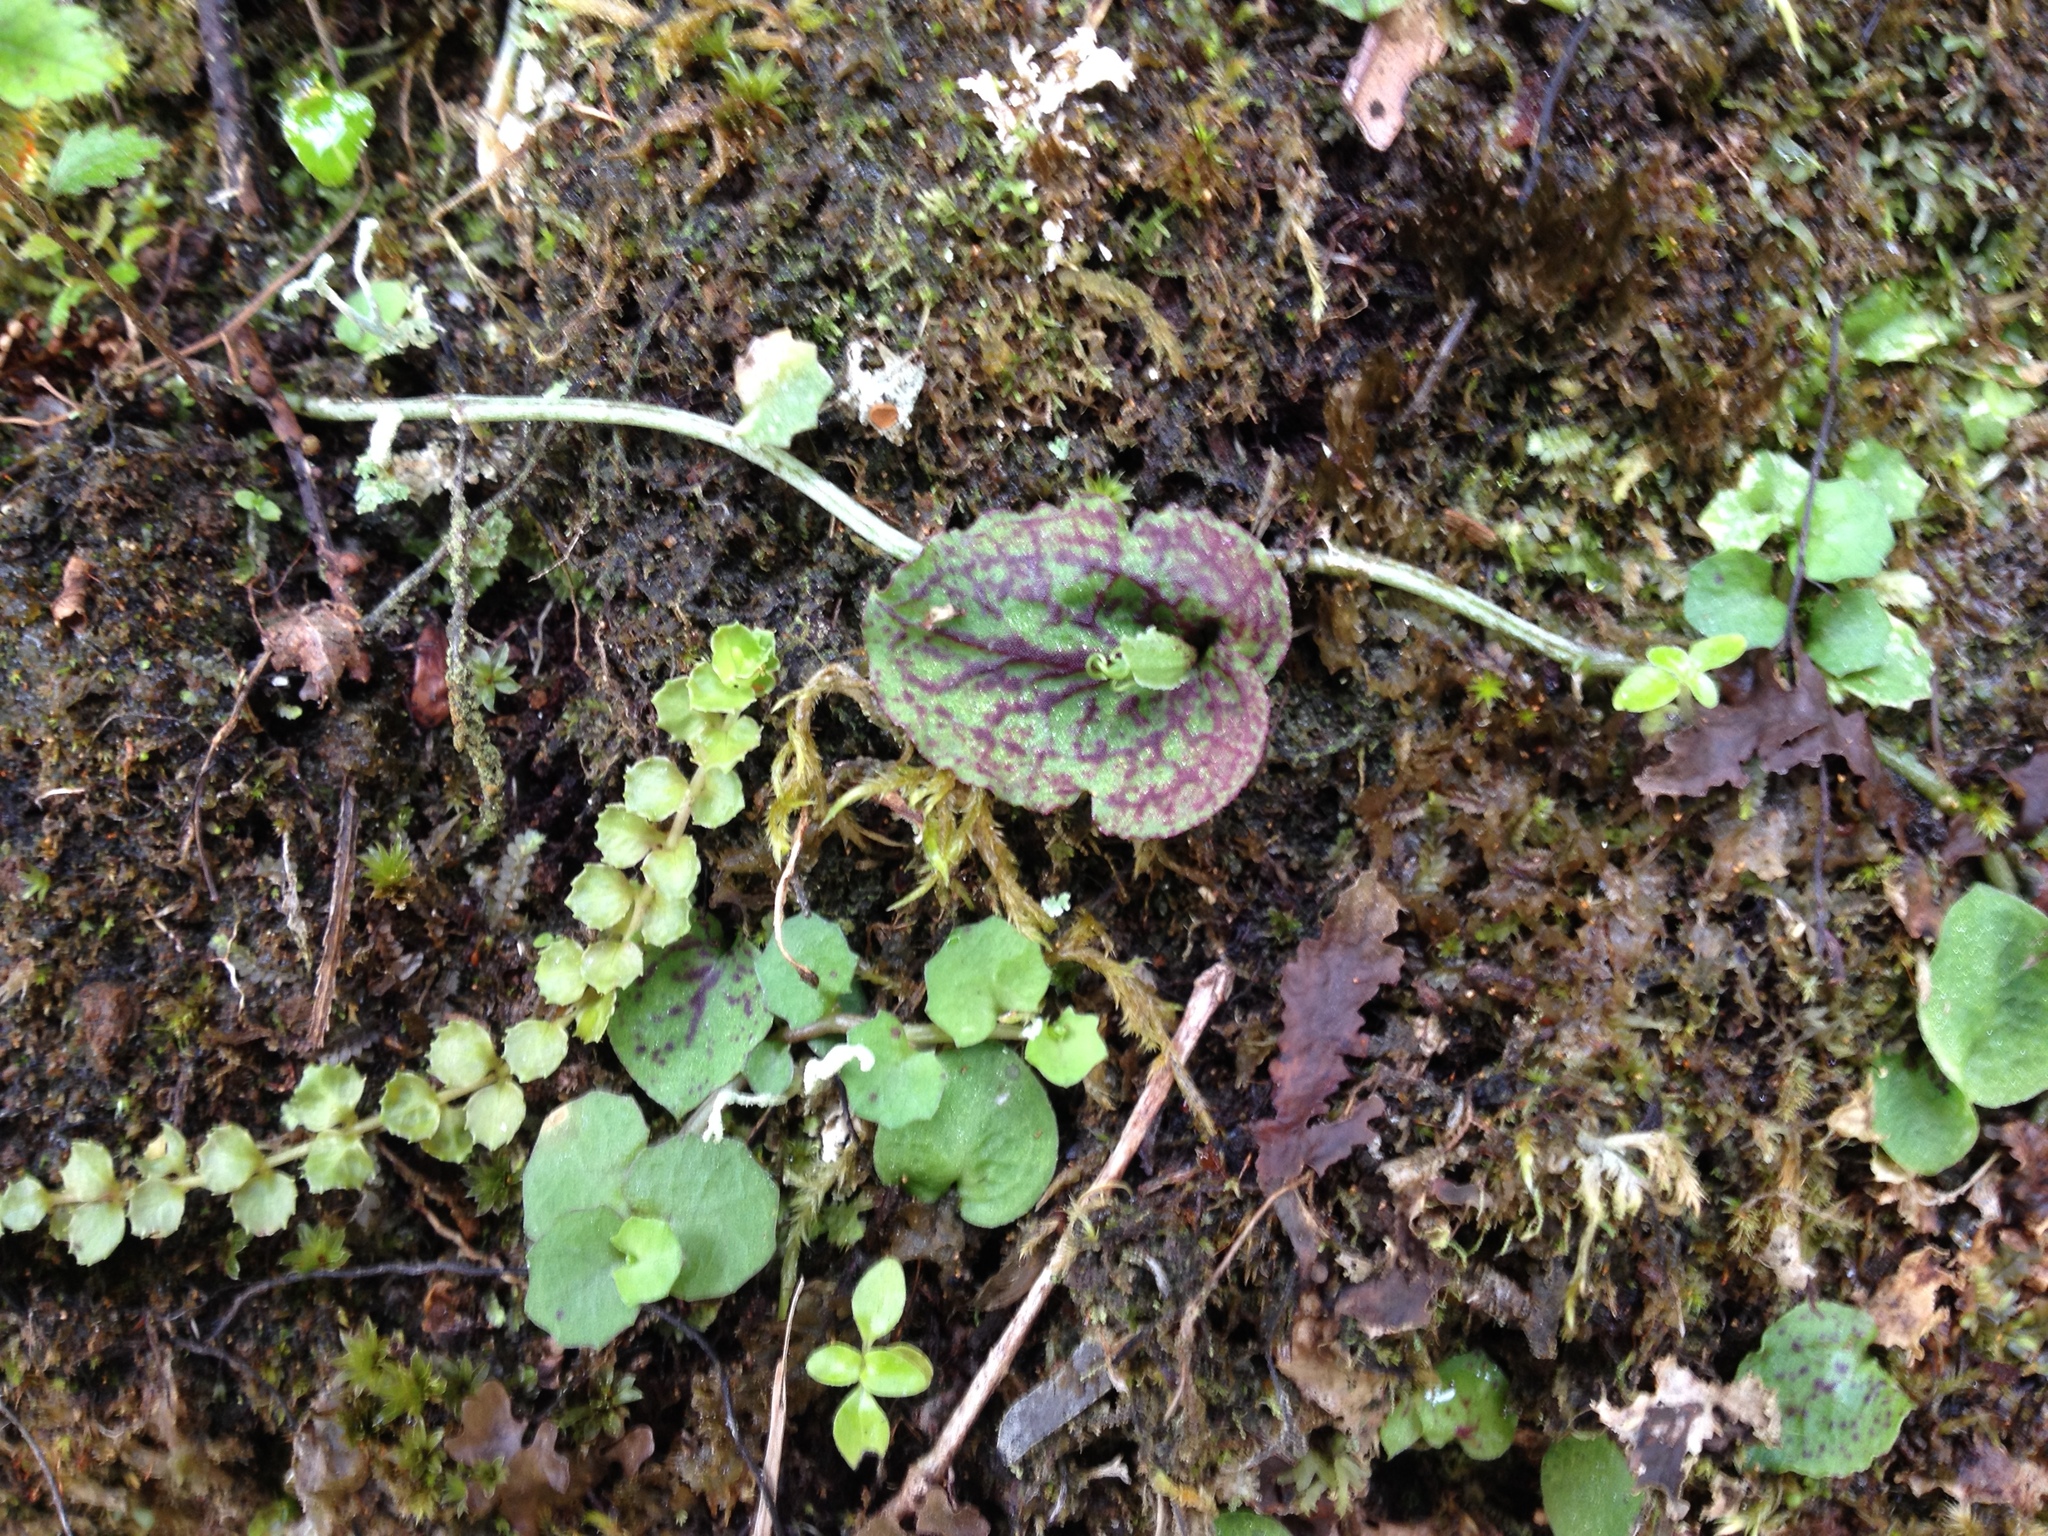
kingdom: Plantae
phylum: Tracheophyta
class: Liliopsida
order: Asparagales
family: Orchidaceae
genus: Corybas
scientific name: Corybas oblongus
